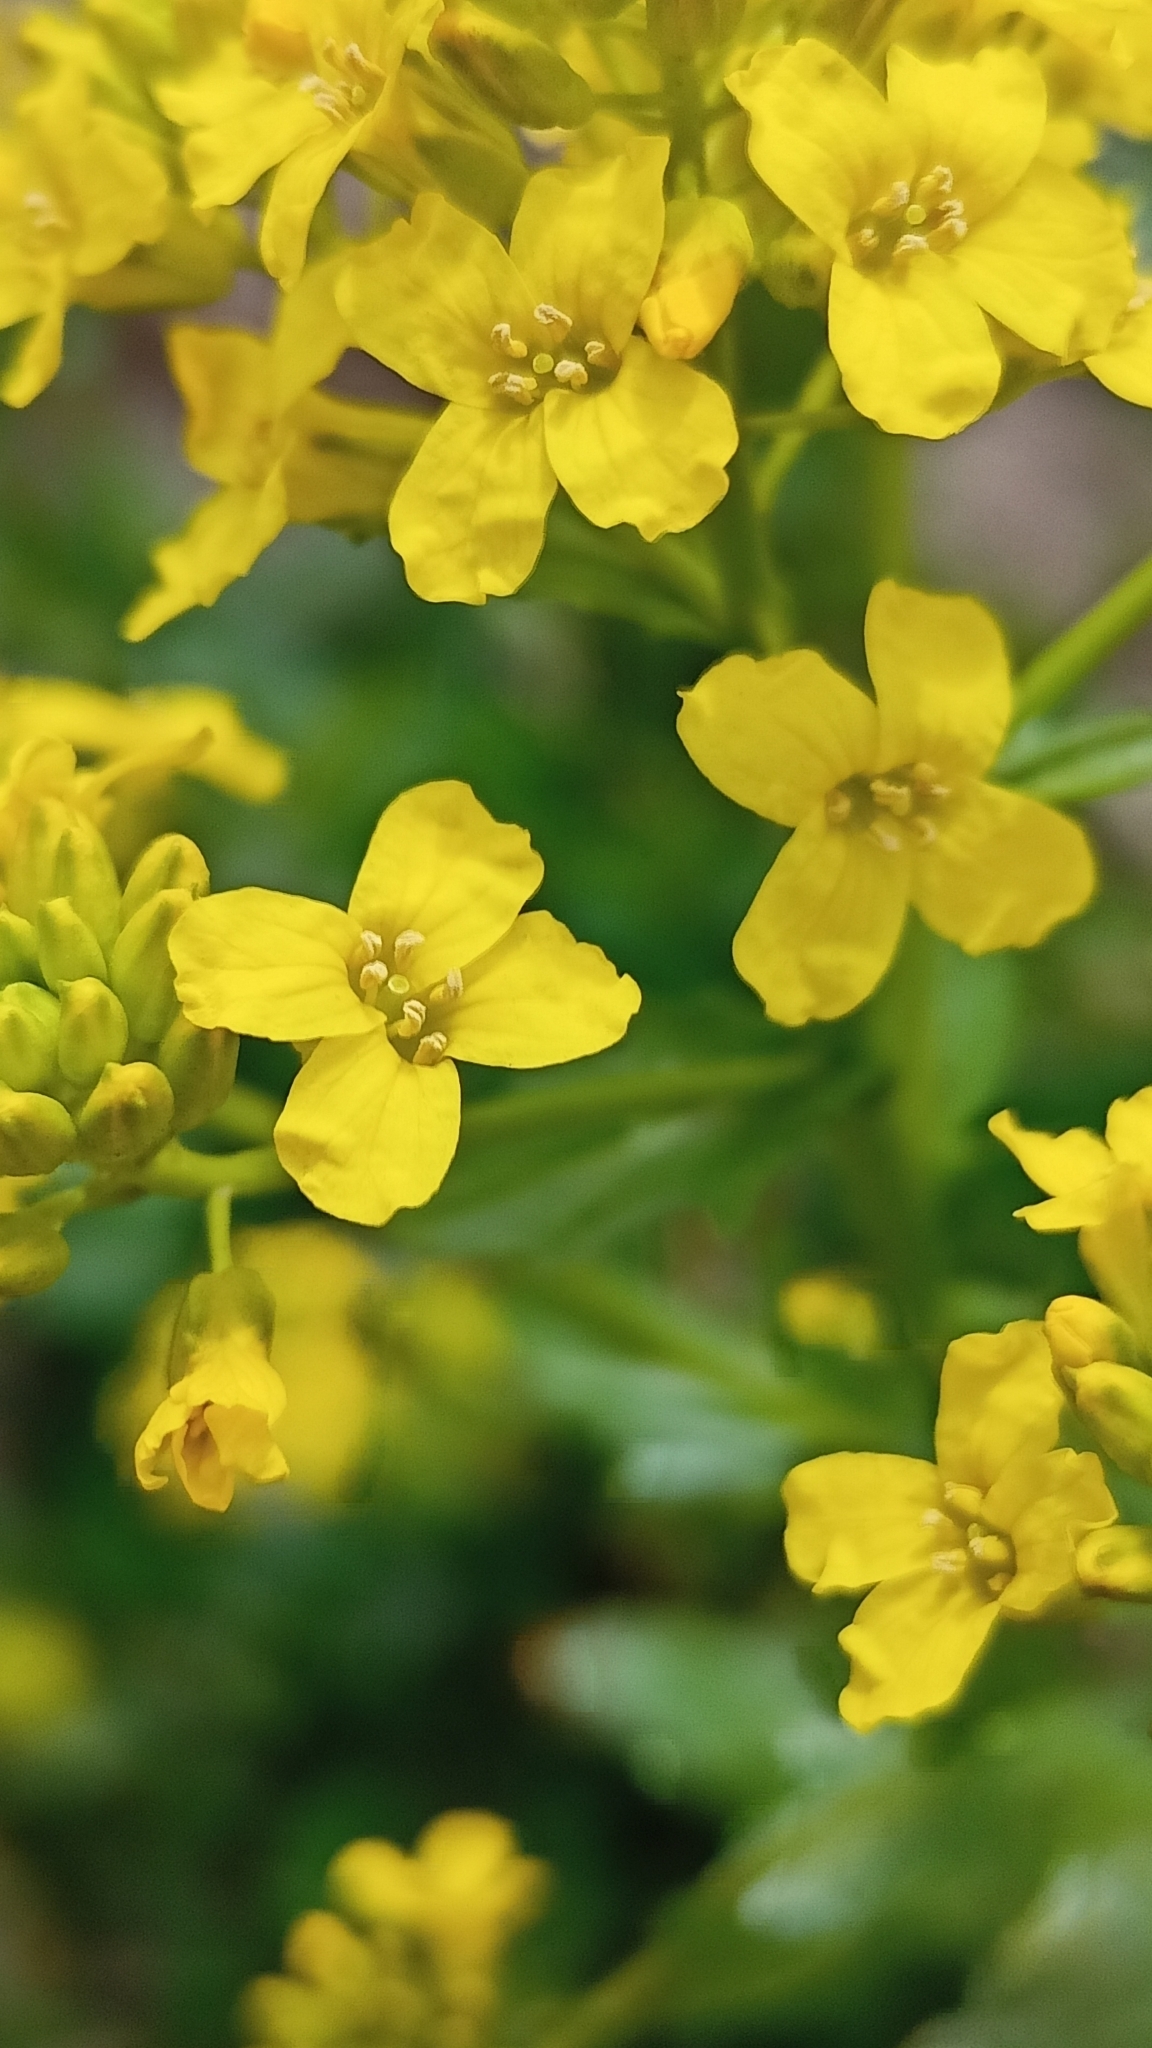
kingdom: Plantae
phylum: Tracheophyta
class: Magnoliopsida
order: Brassicales
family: Brassicaceae
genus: Barbarea
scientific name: Barbarea vulgaris
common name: Cressy-greens
